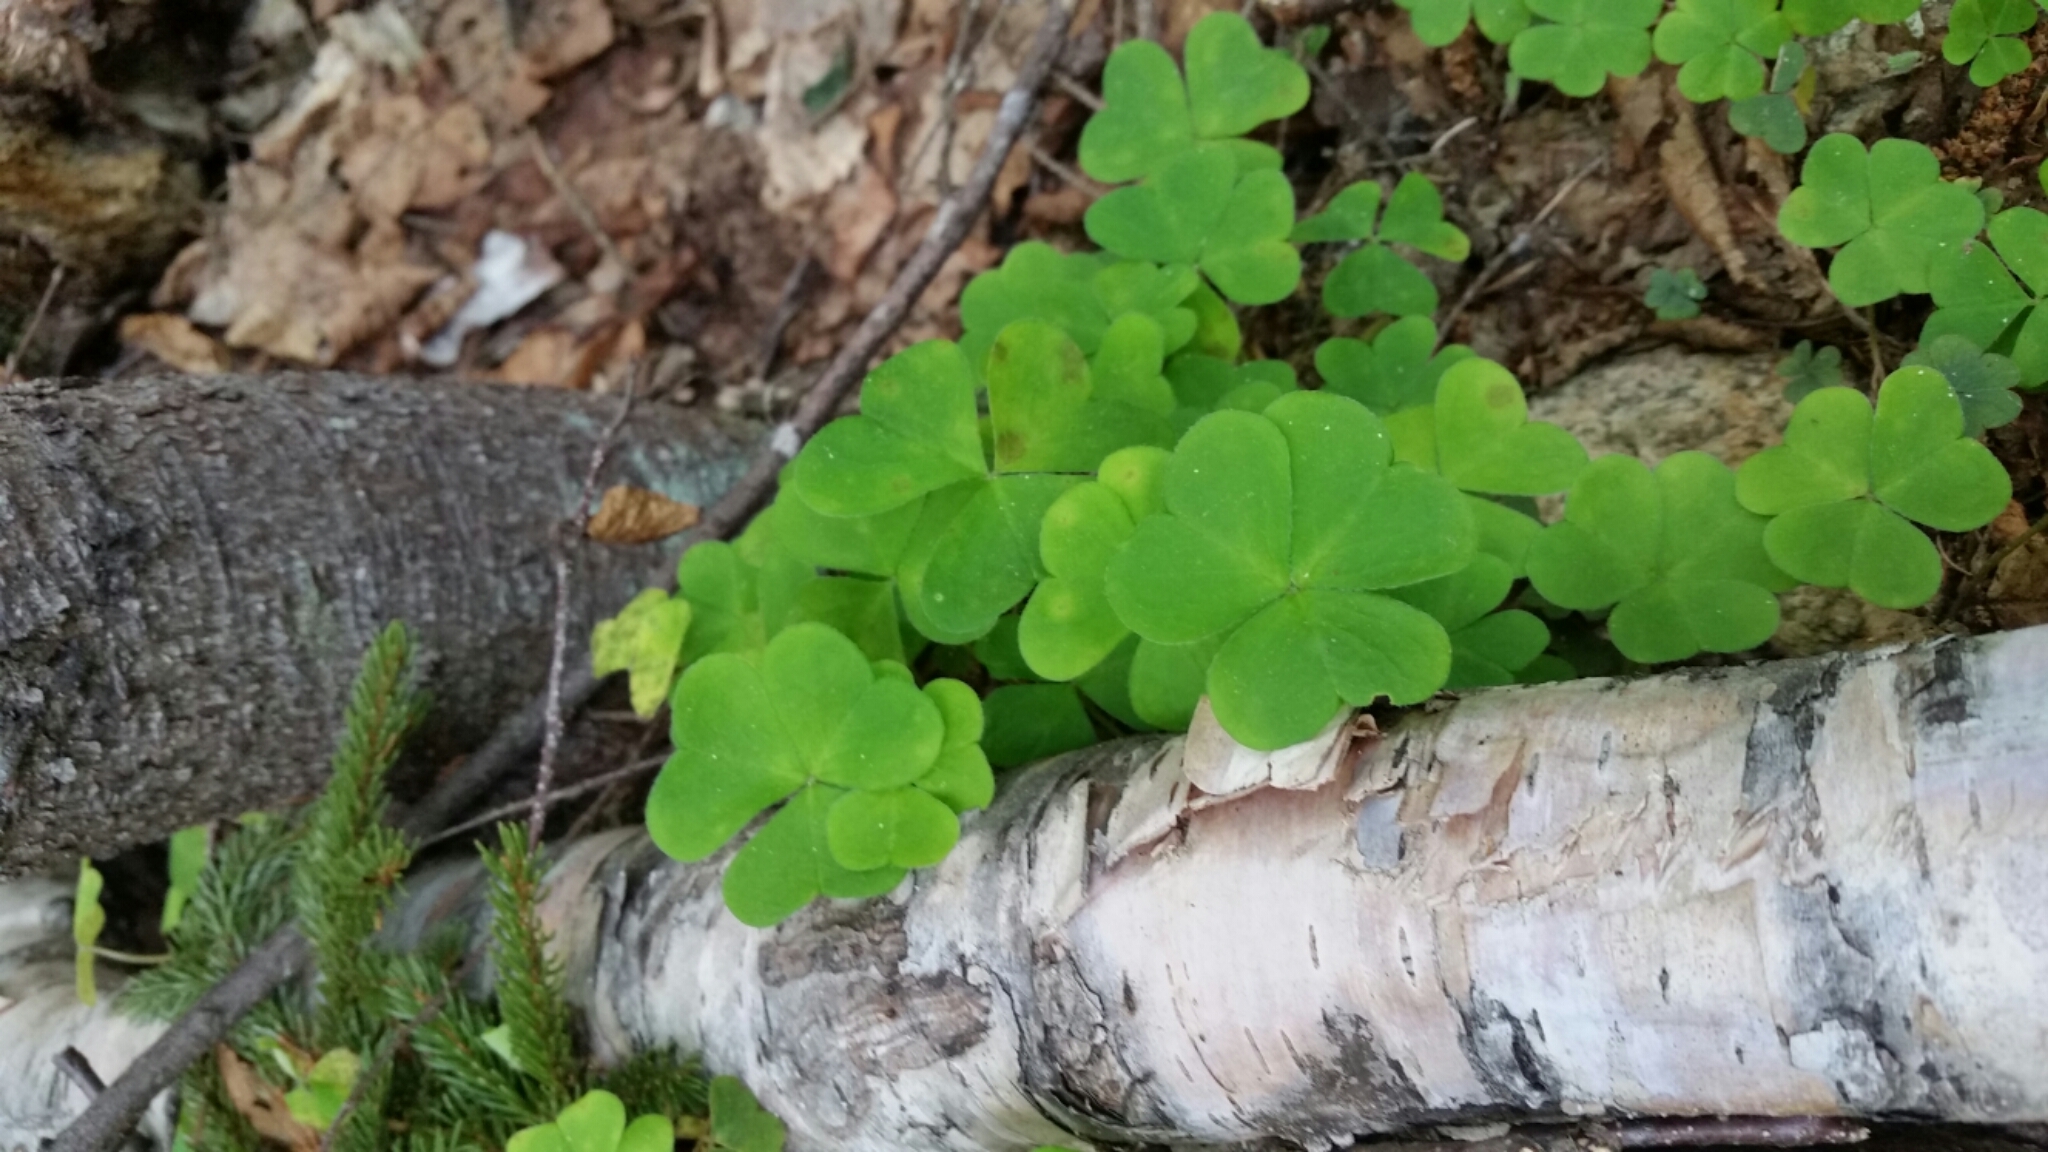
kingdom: Plantae
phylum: Tracheophyta
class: Magnoliopsida
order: Oxalidales
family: Oxalidaceae
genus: Oxalis
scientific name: Oxalis montana
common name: American wood-sorrel
